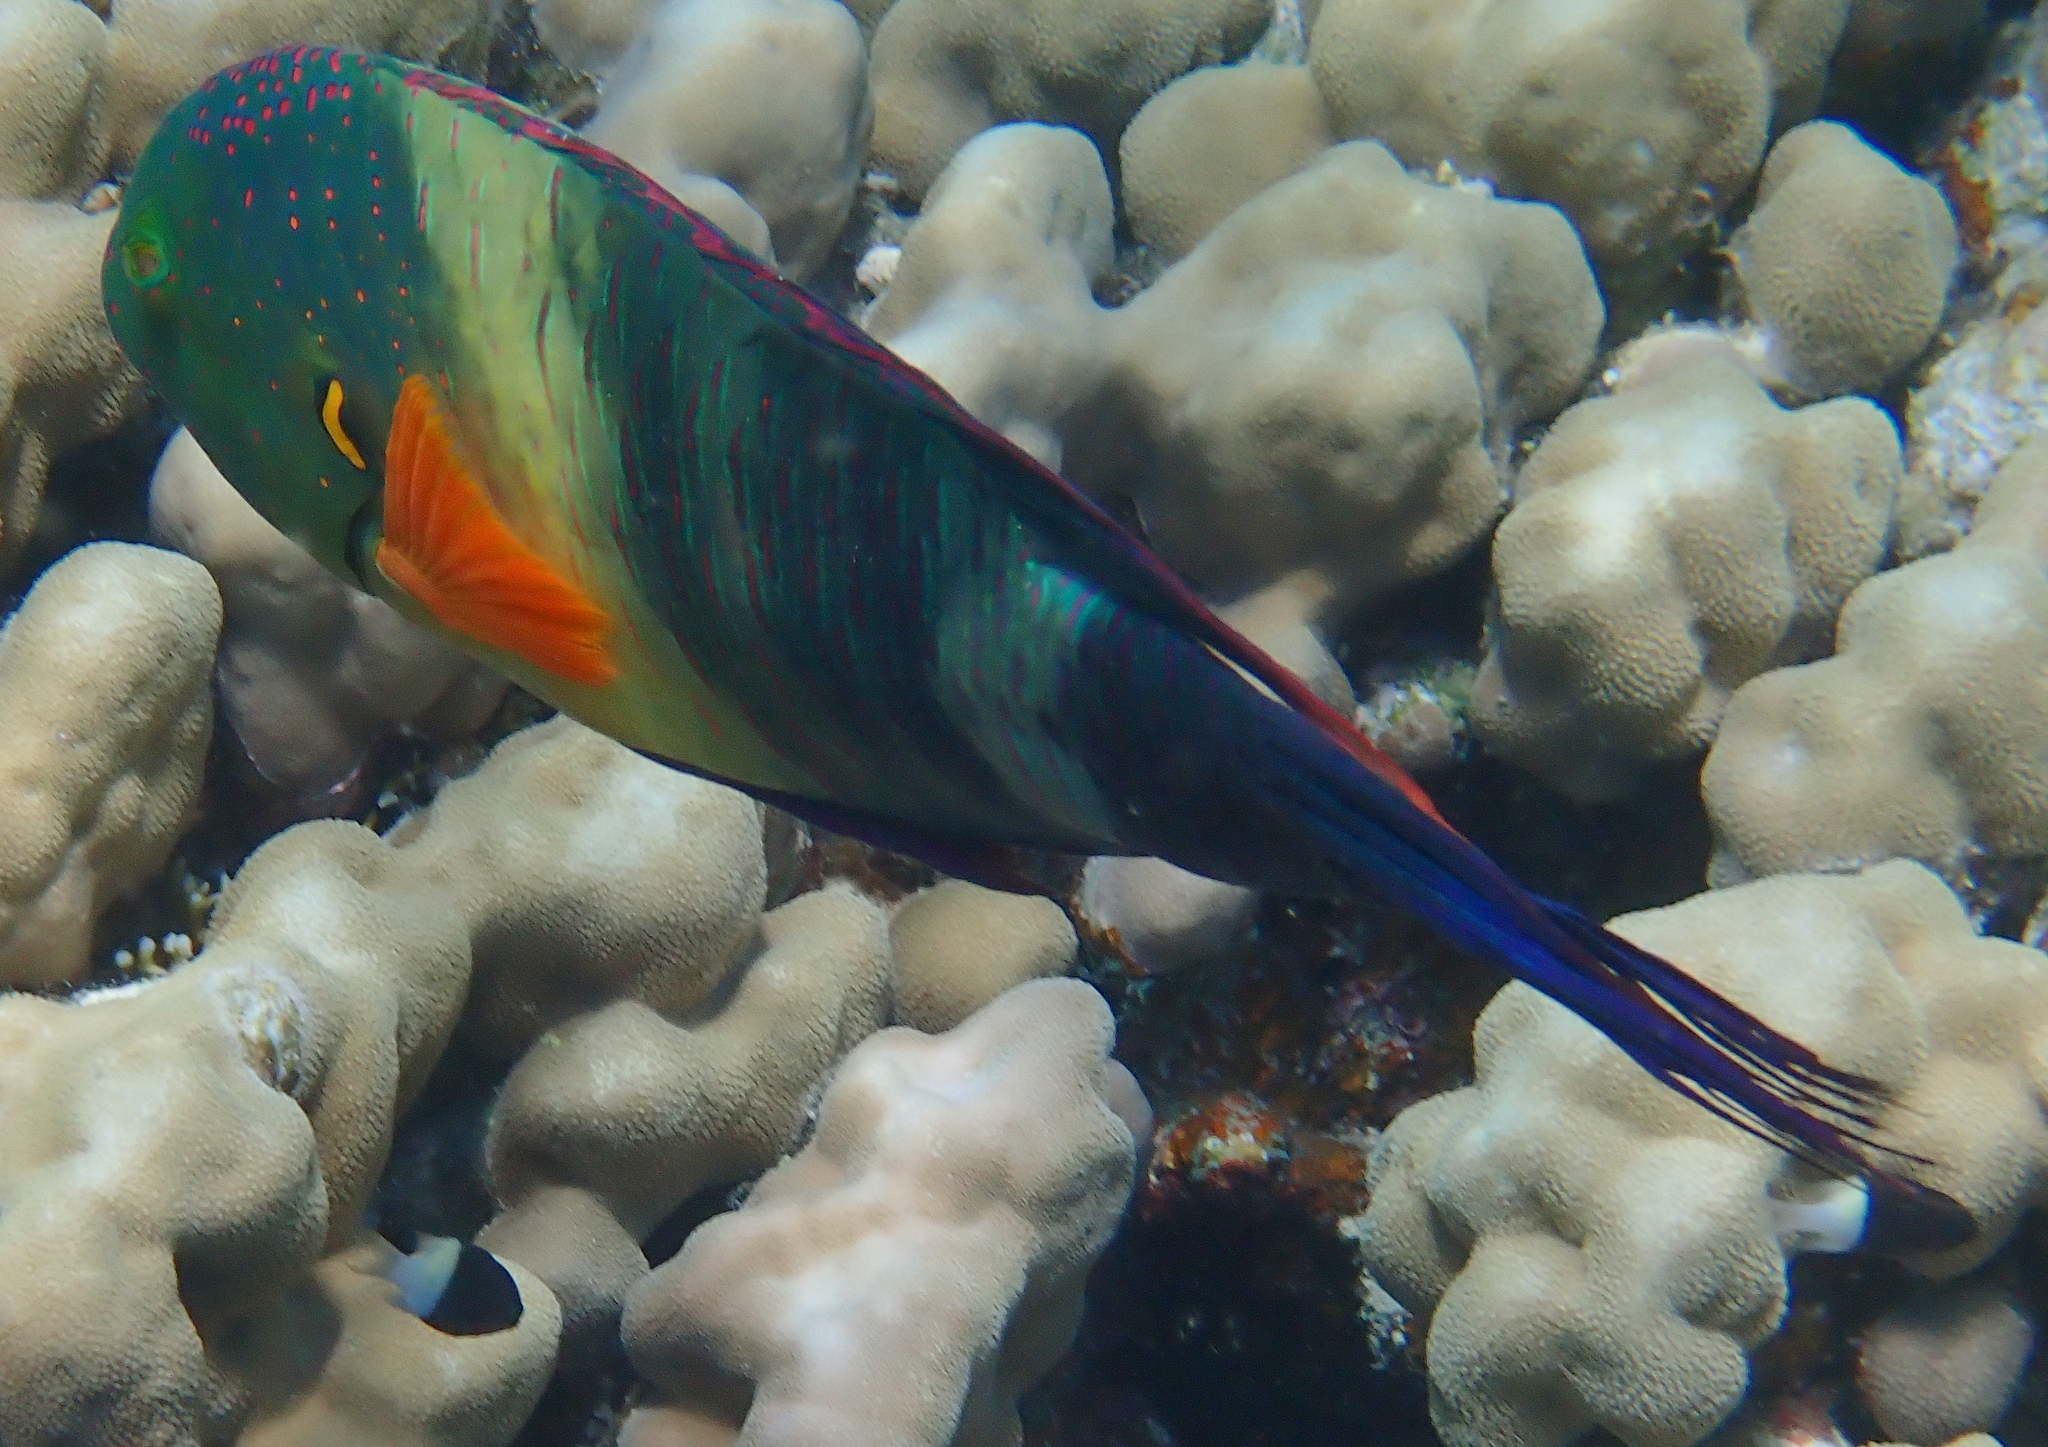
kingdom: Animalia
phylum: Chordata
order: Perciformes
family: Labridae
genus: Cheilinus
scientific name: Cheilinus lunulatus
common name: Broomtail wrasse
